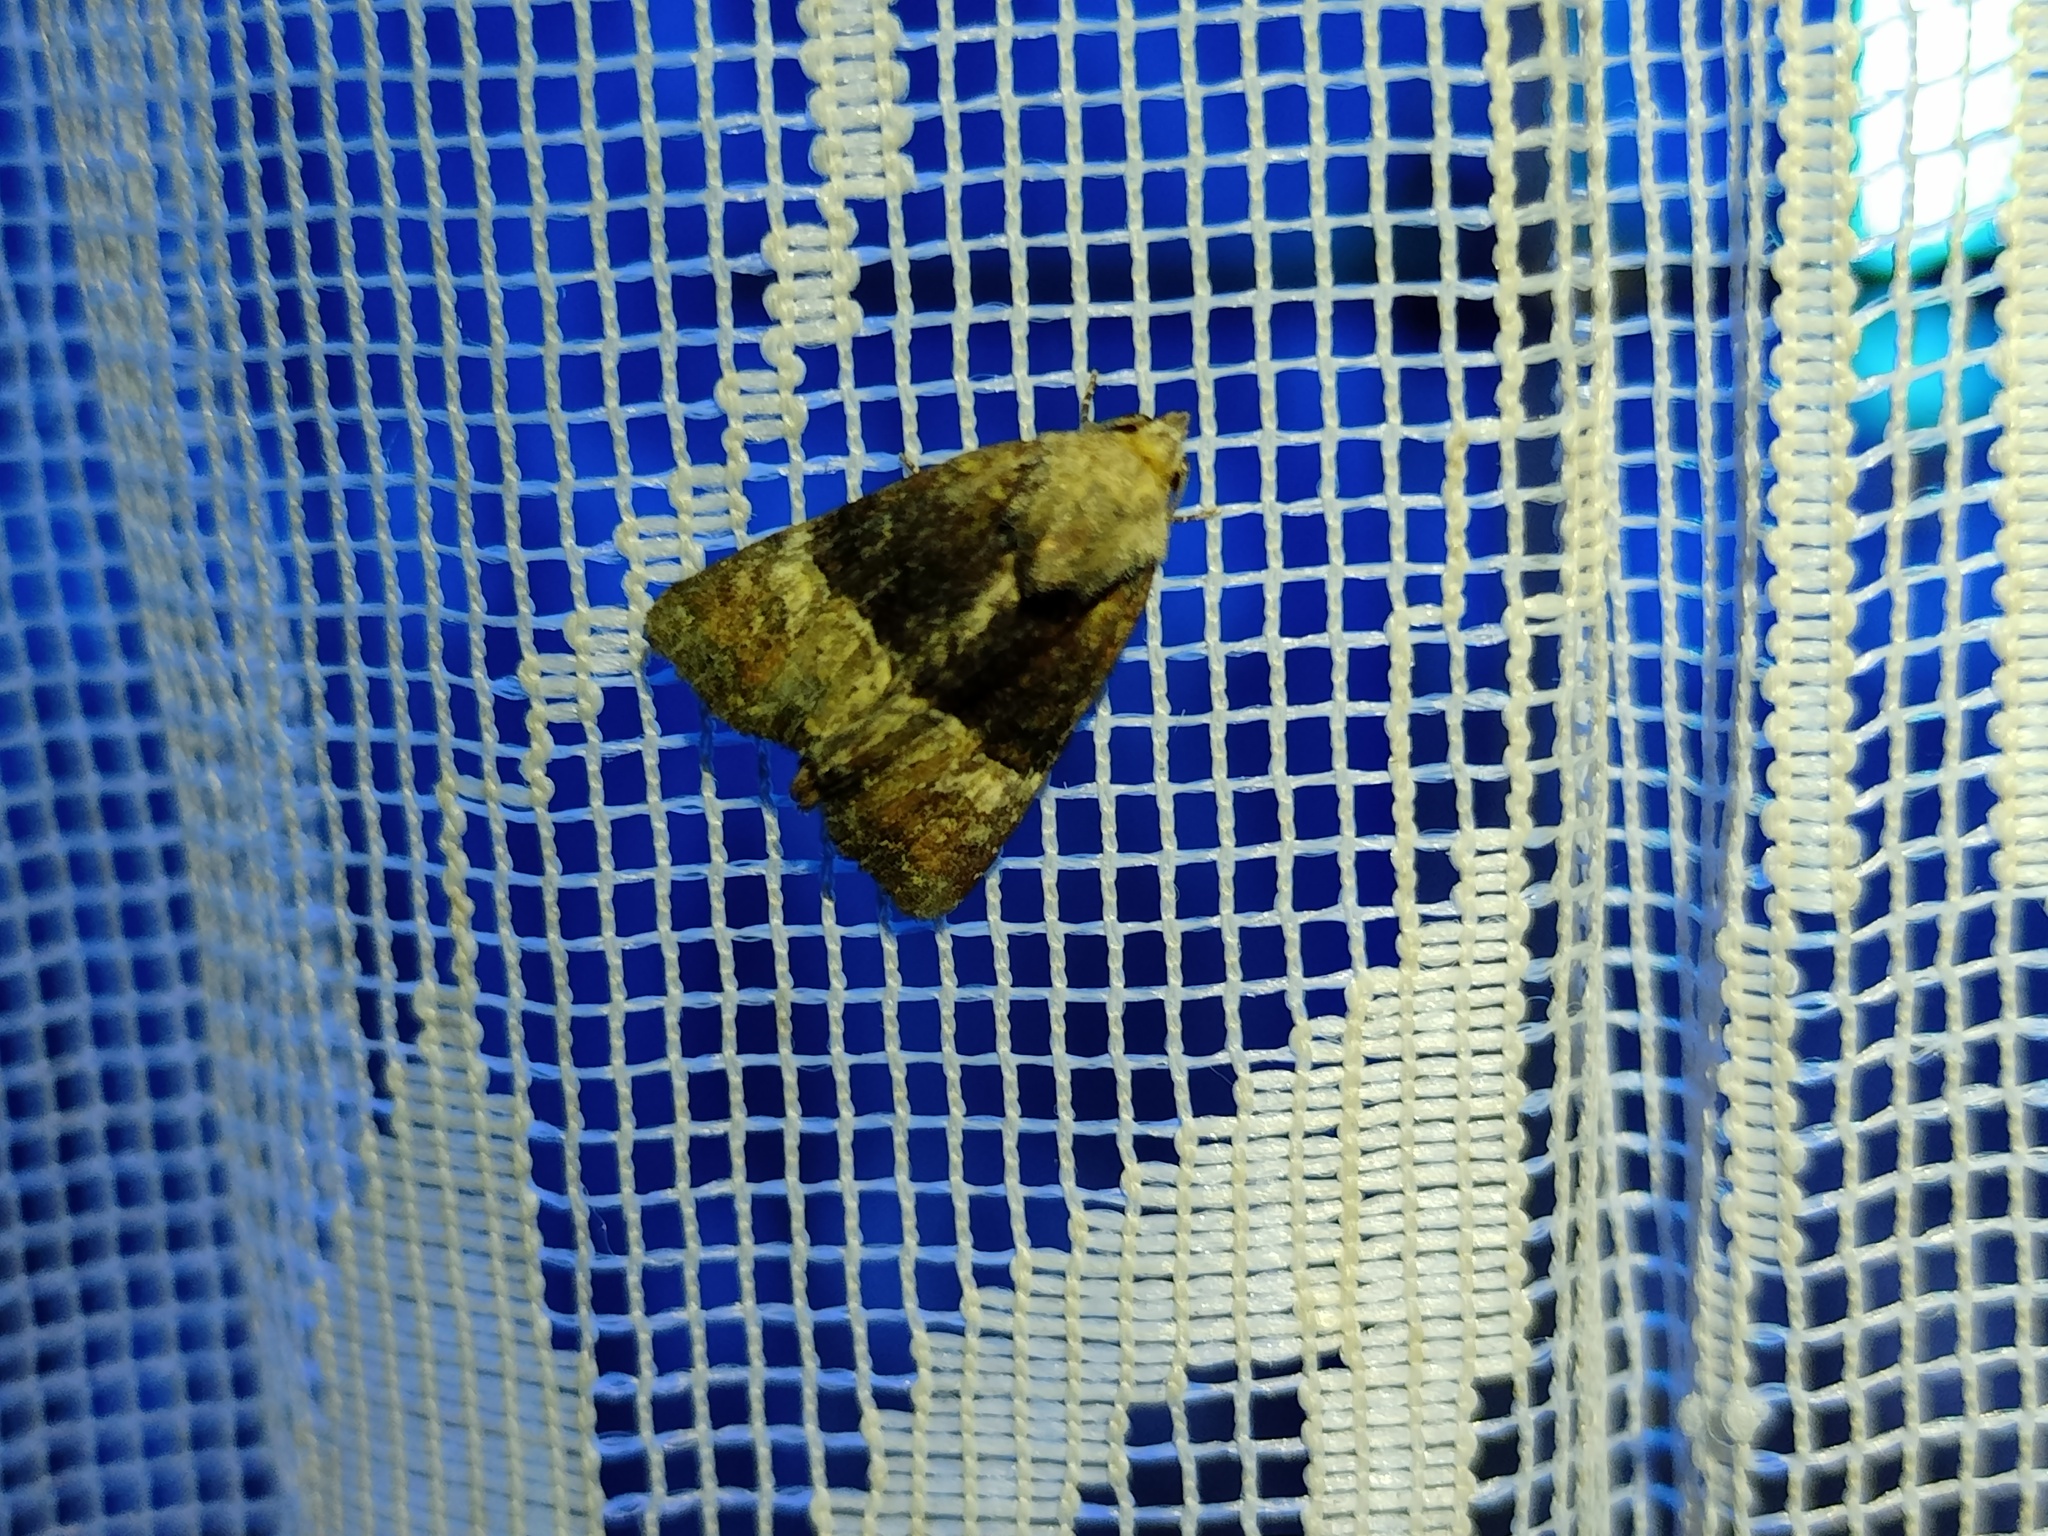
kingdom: Animalia
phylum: Arthropoda
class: Insecta
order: Lepidoptera
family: Noctuidae
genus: Mesoligia
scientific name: Mesoligia furuncula
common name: Cloaked minor
